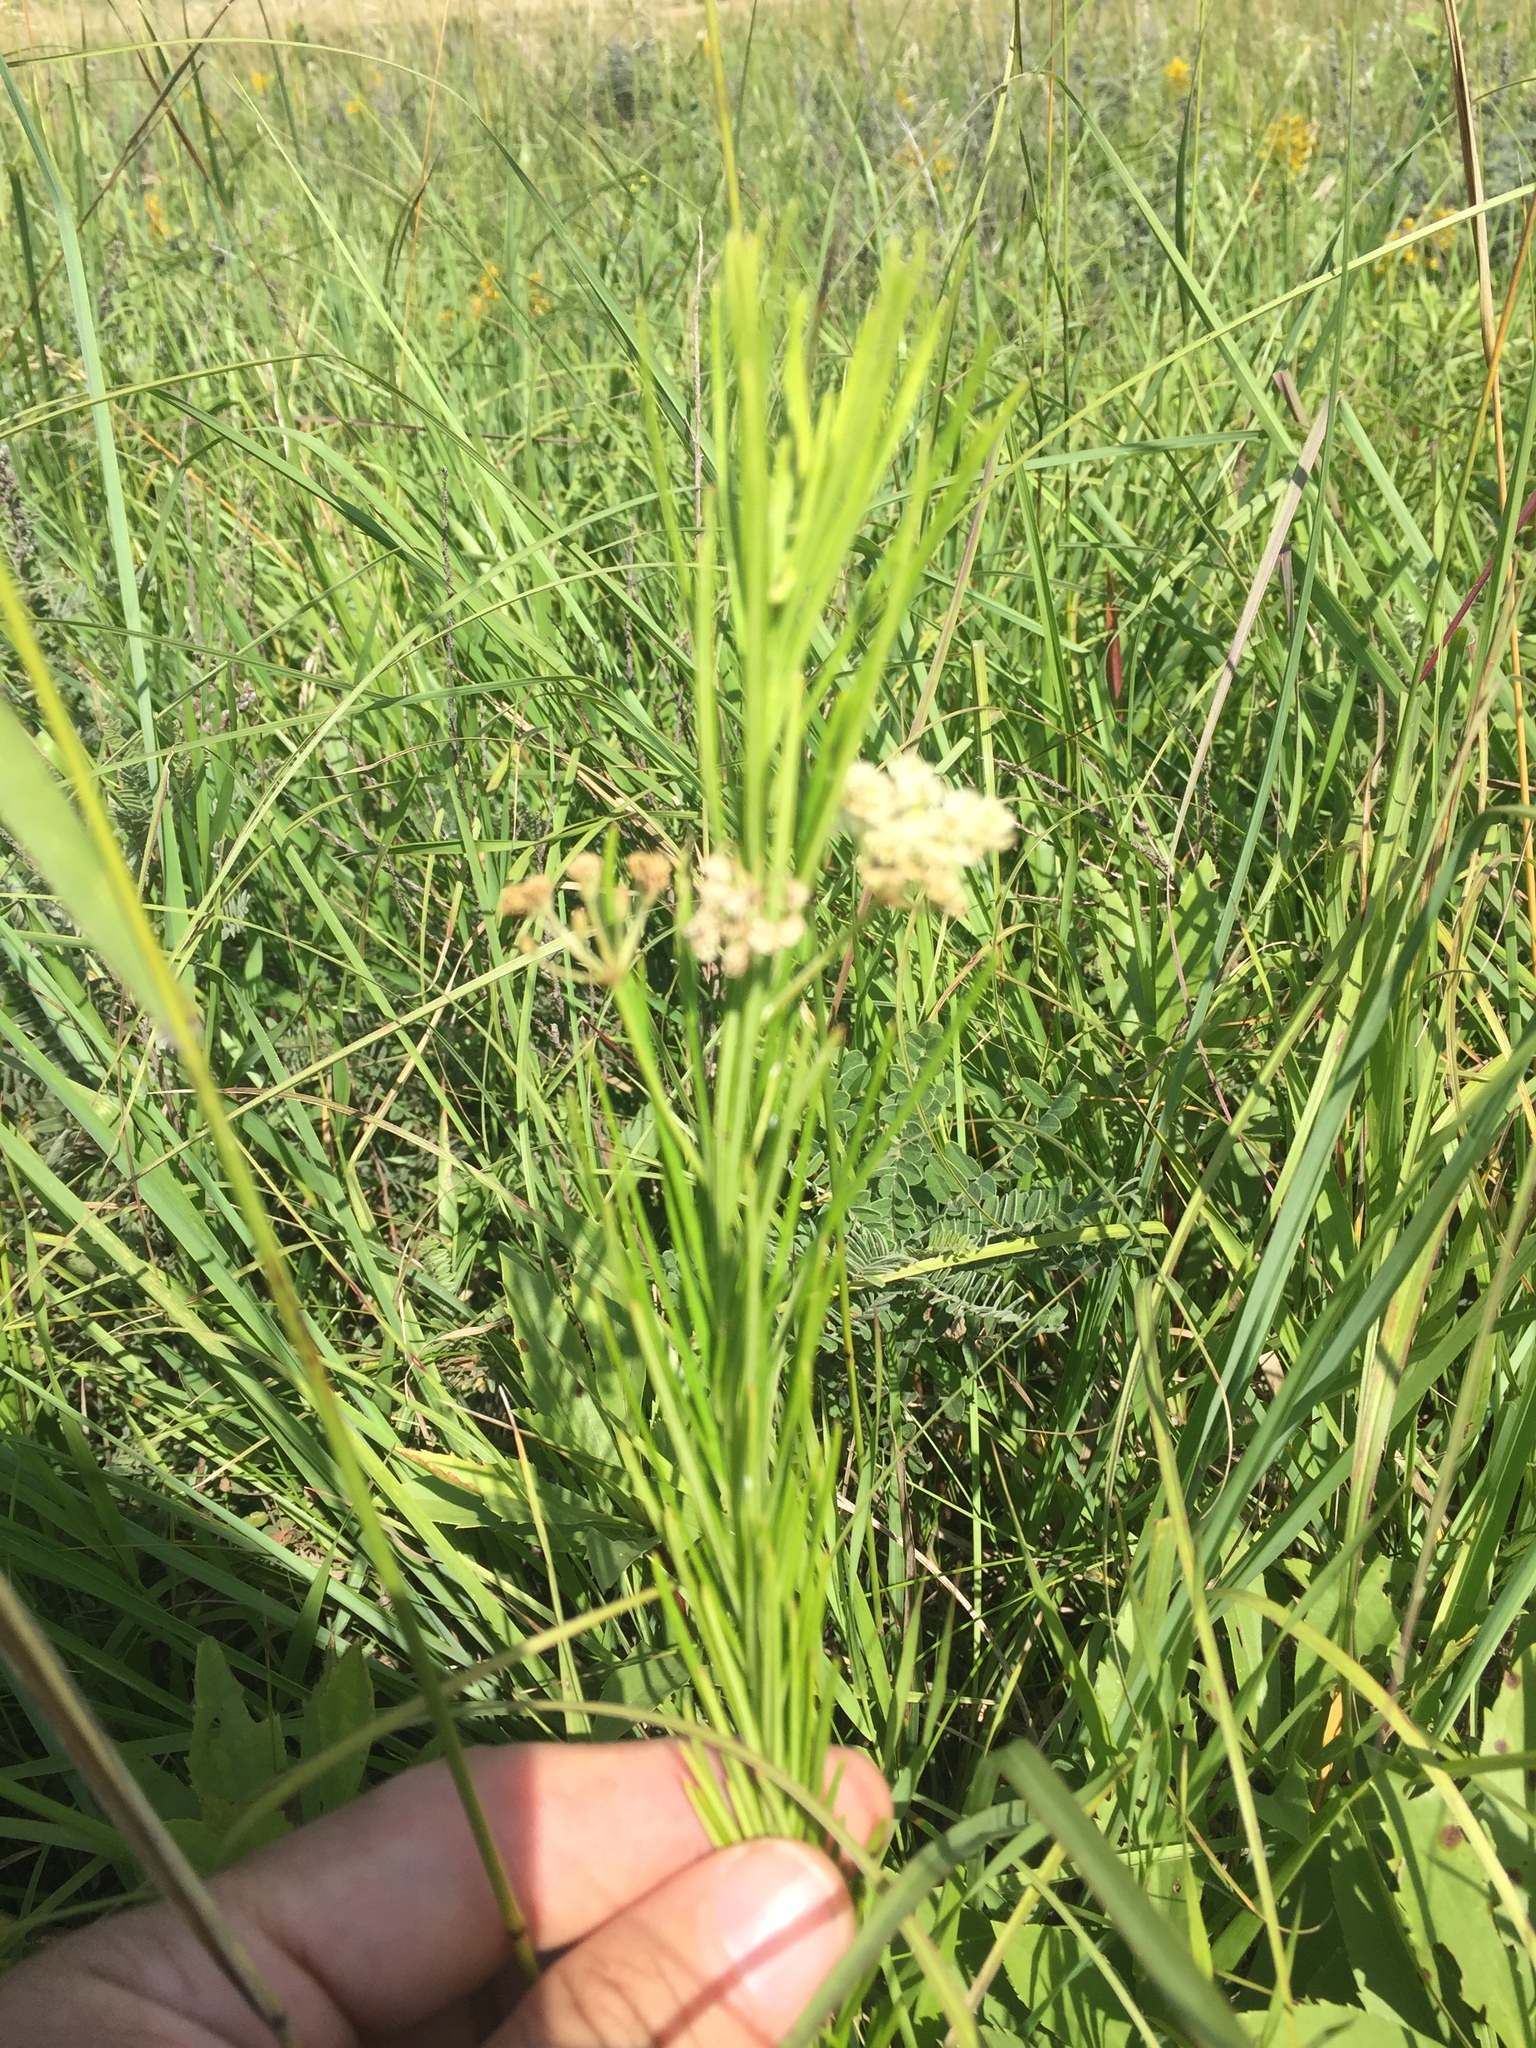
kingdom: Plantae
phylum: Tracheophyta
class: Magnoliopsida
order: Gentianales
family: Apocynaceae
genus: Asclepias
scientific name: Asclepias verticillata
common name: Eastern whorled milkweed
